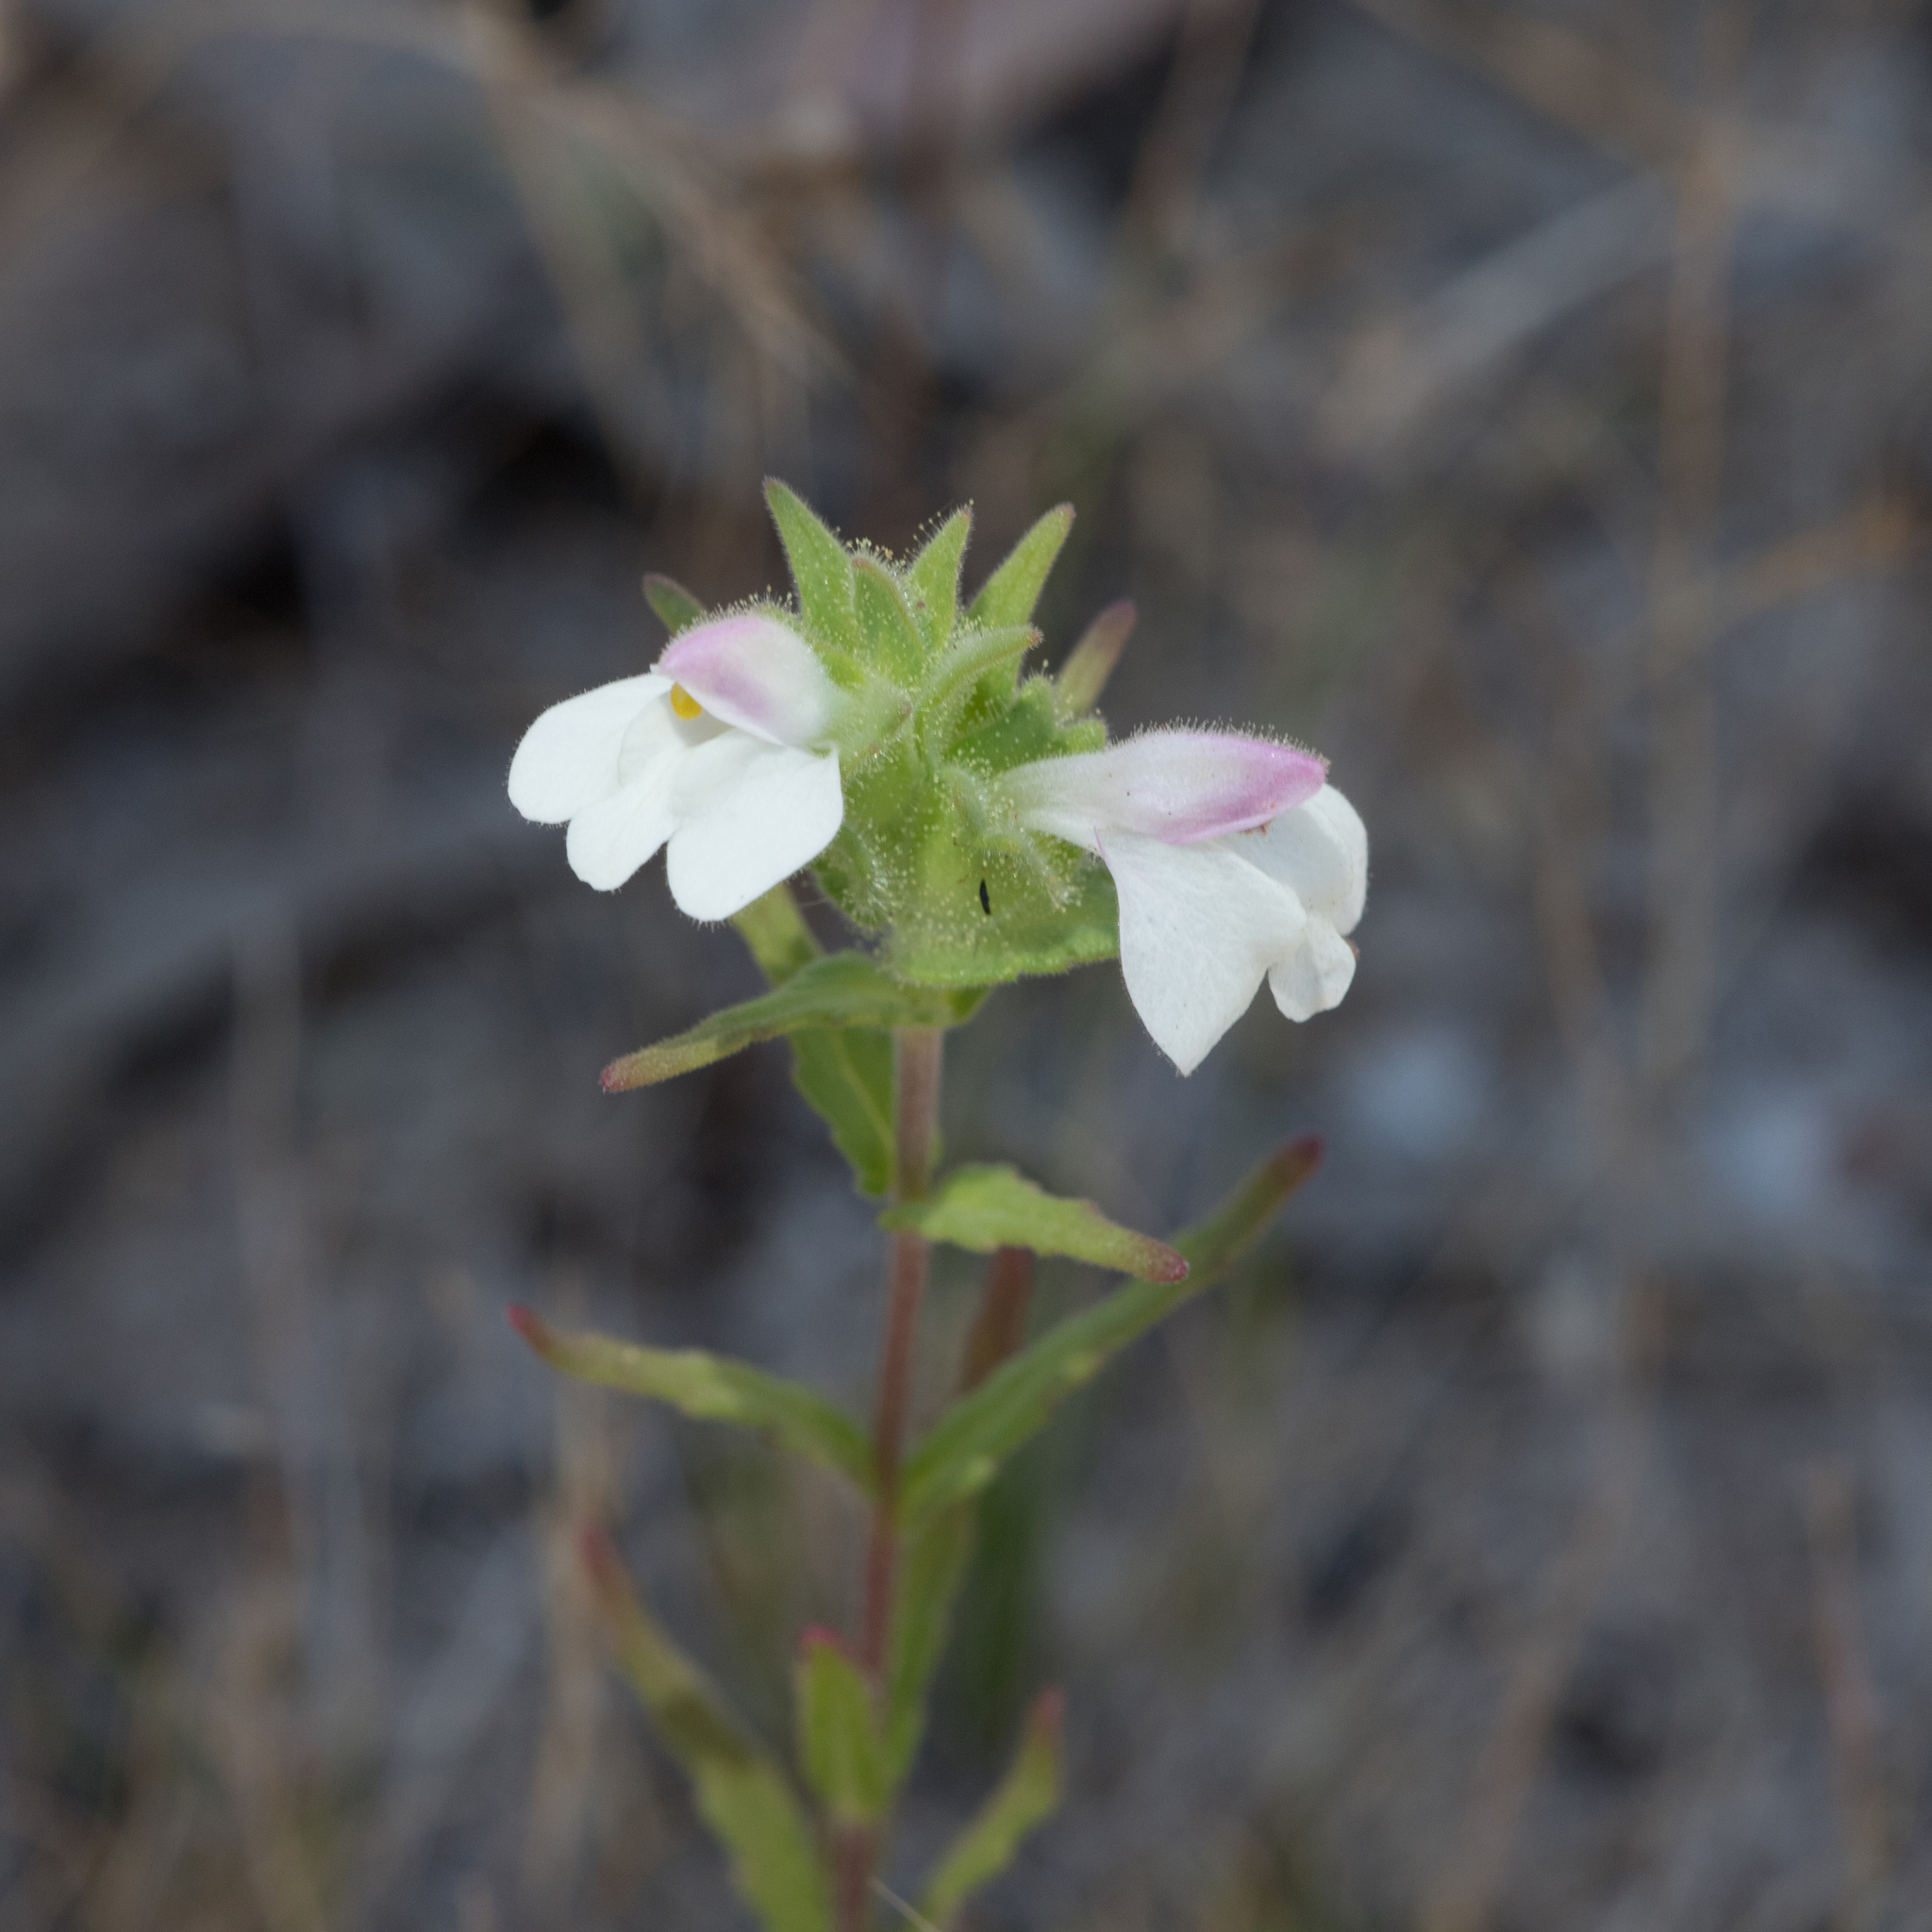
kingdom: Plantae
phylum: Tracheophyta
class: Magnoliopsida
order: Lamiales
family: Orobanchaceae
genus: Bellardia
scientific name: Bellardia trixago
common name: Mediterranean lineseed
